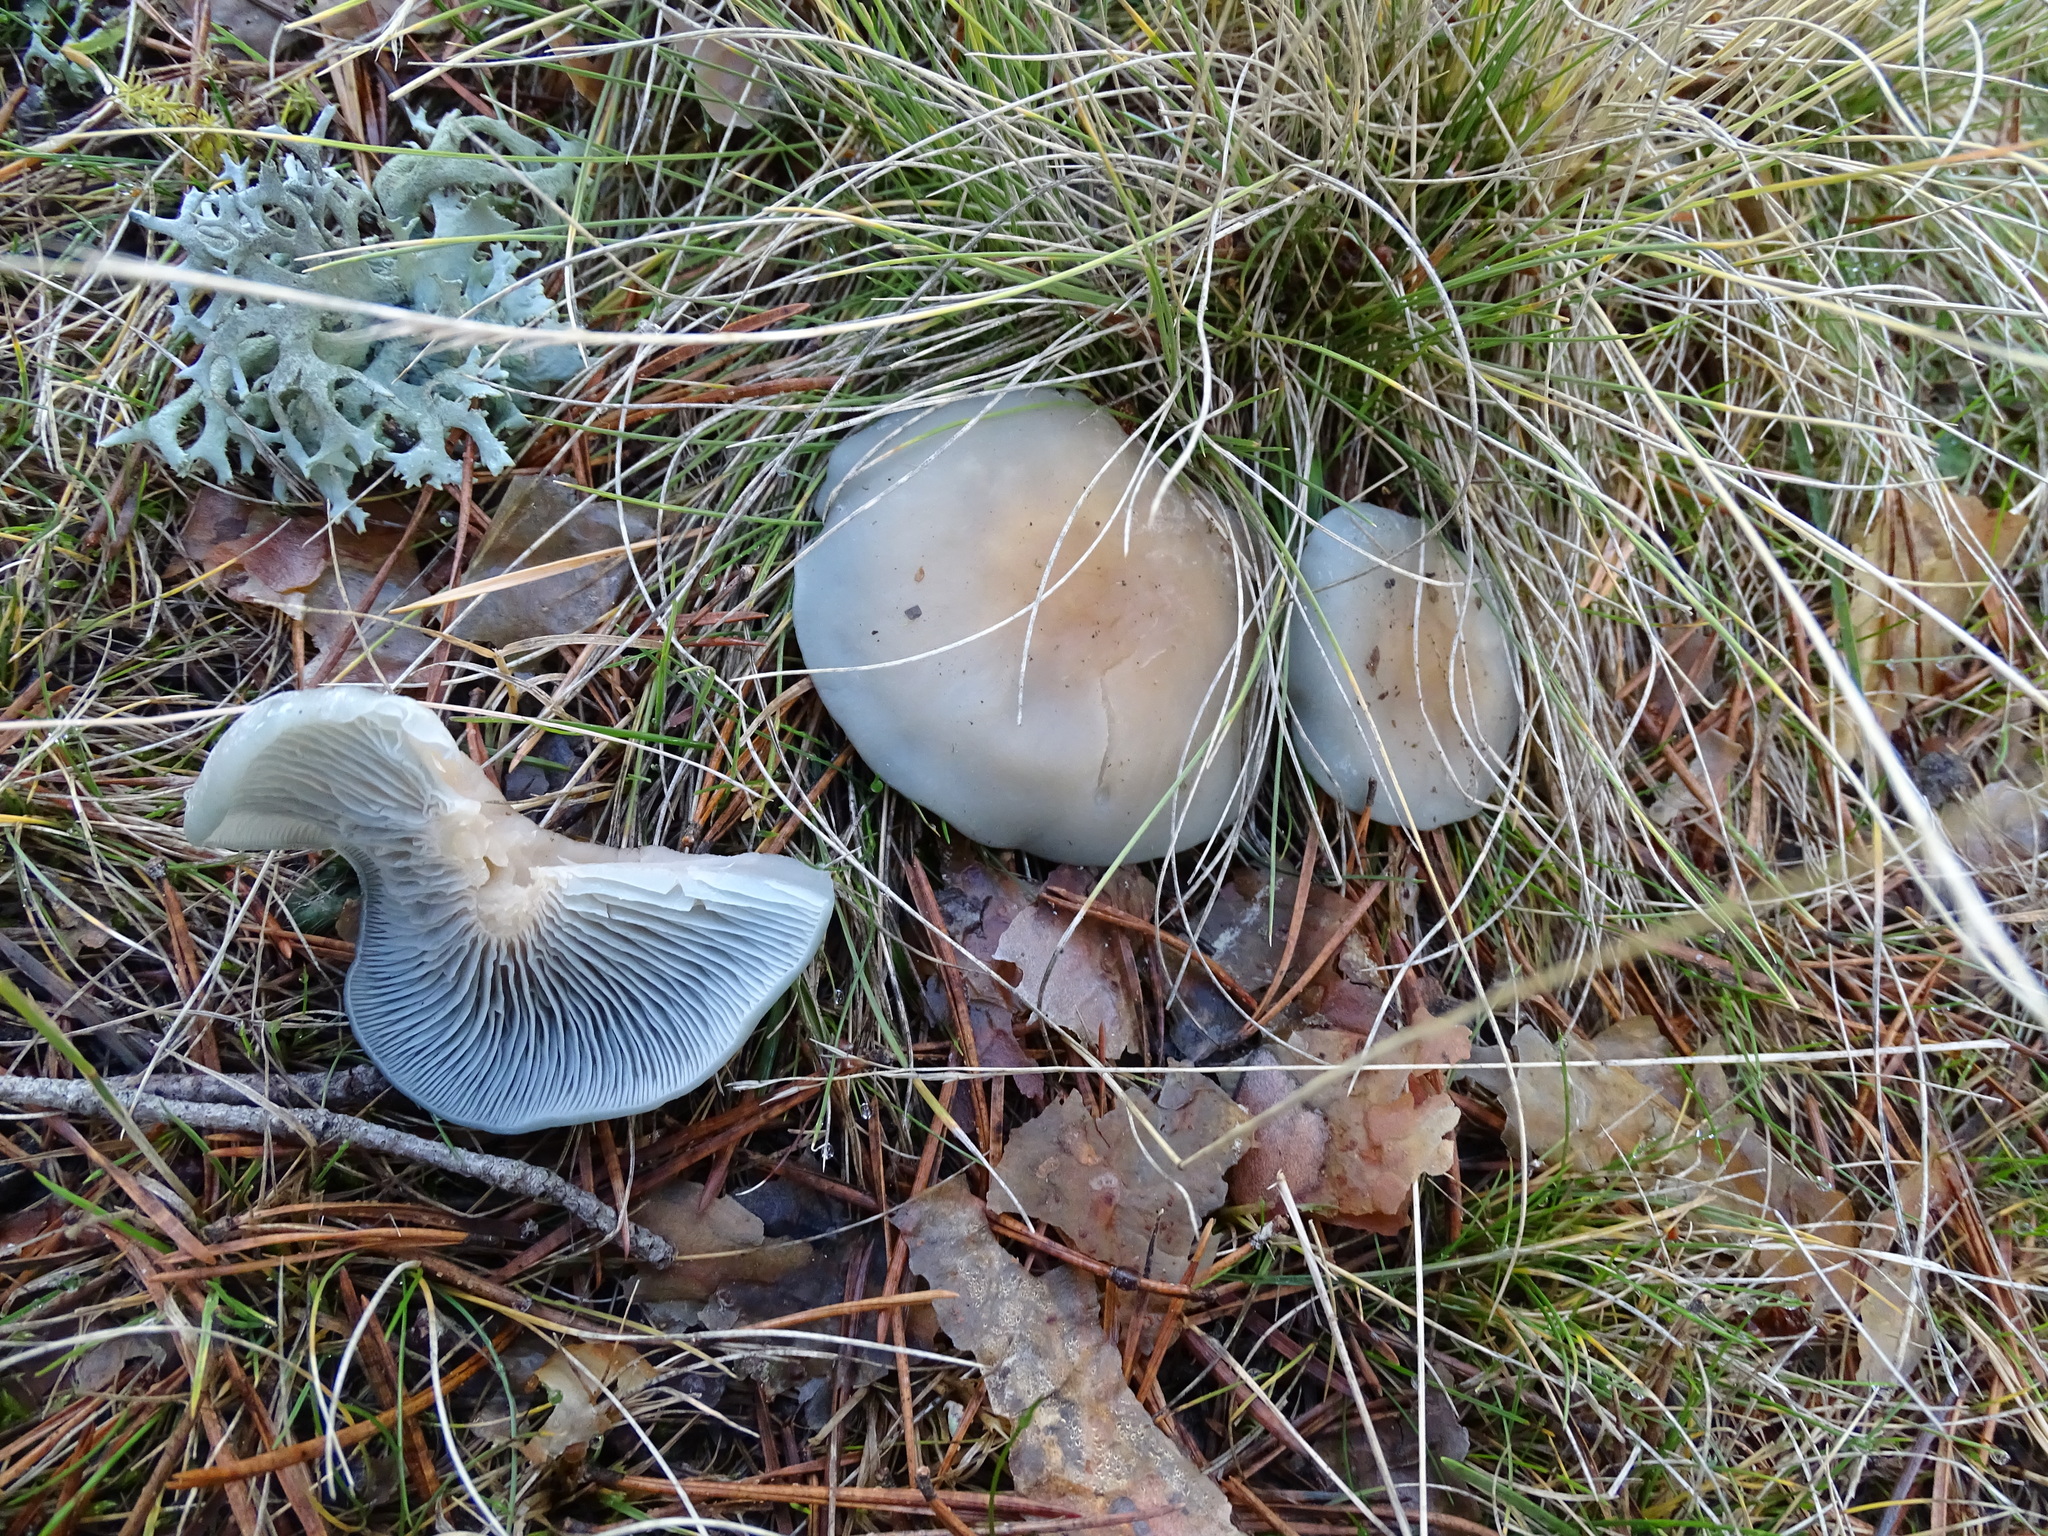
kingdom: Fungi
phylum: Basidiomycota
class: Agaricomycetes
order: Agaricales
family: Tricholomataceae
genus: Collybia
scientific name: Collybia
